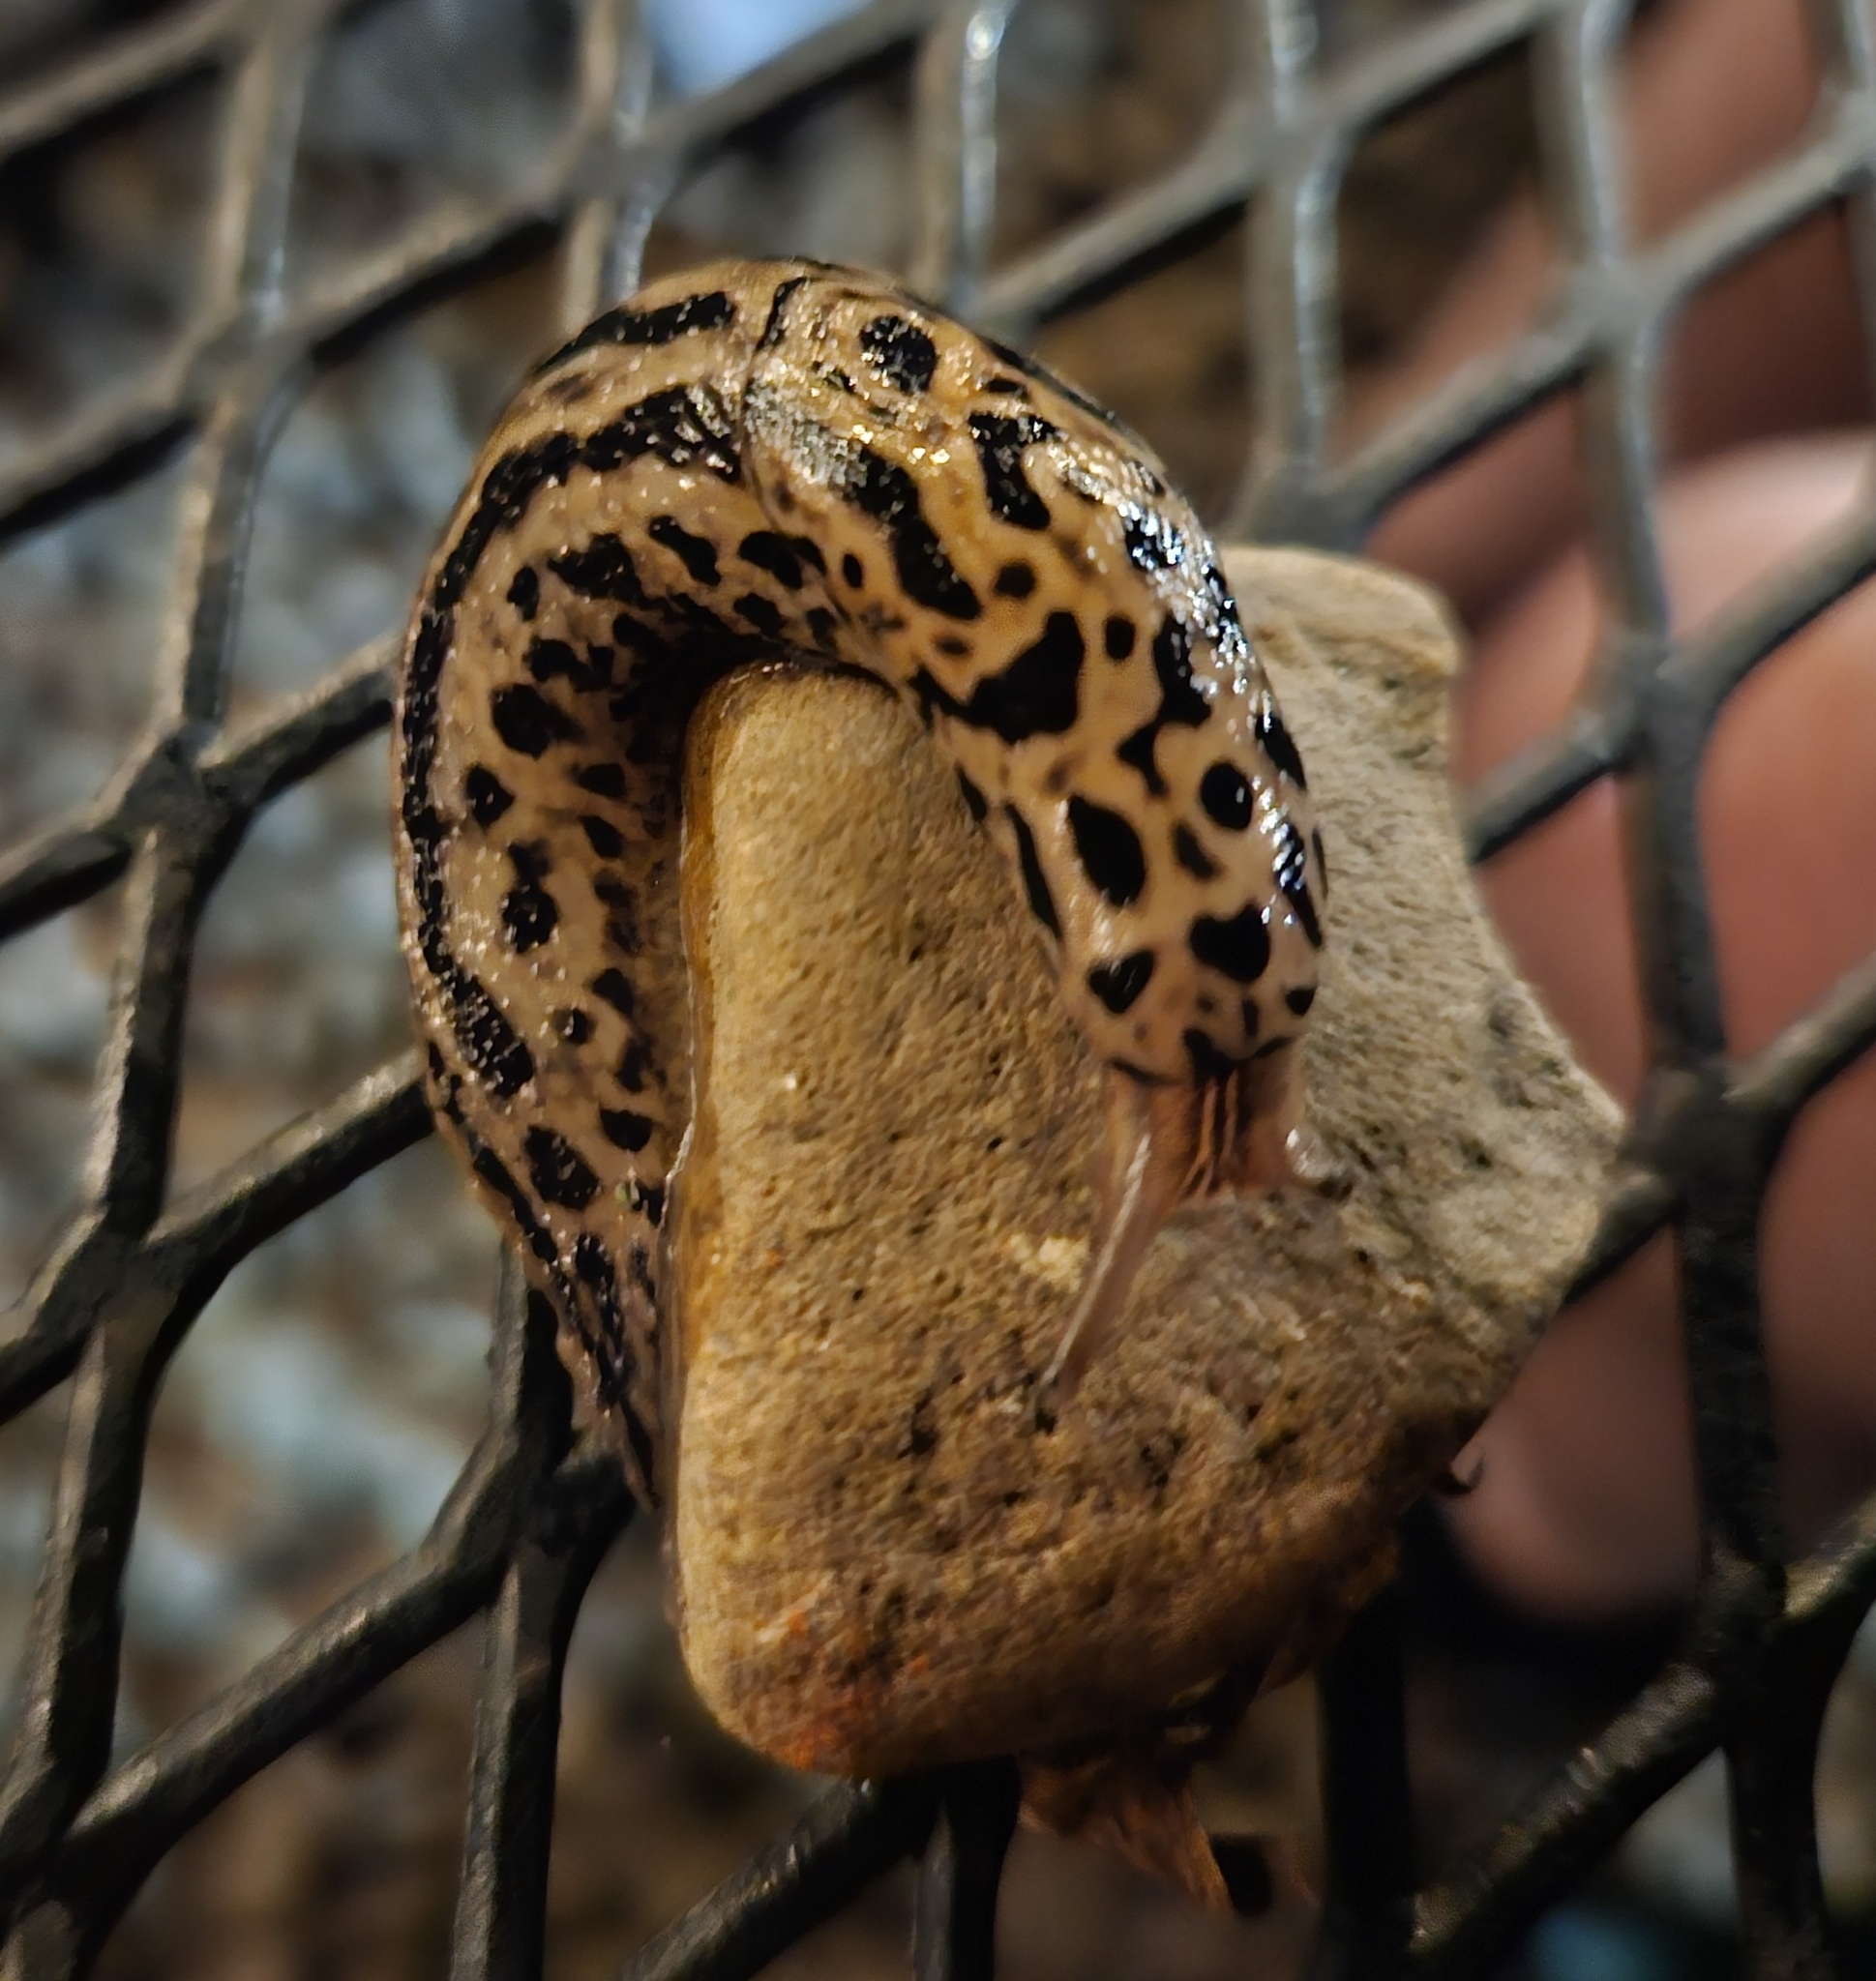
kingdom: Animalia
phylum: Mollusca
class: Gastropoda
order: Stylommatophora
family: Limacidae
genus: Limax
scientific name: Limax maximus
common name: Great grey slug
